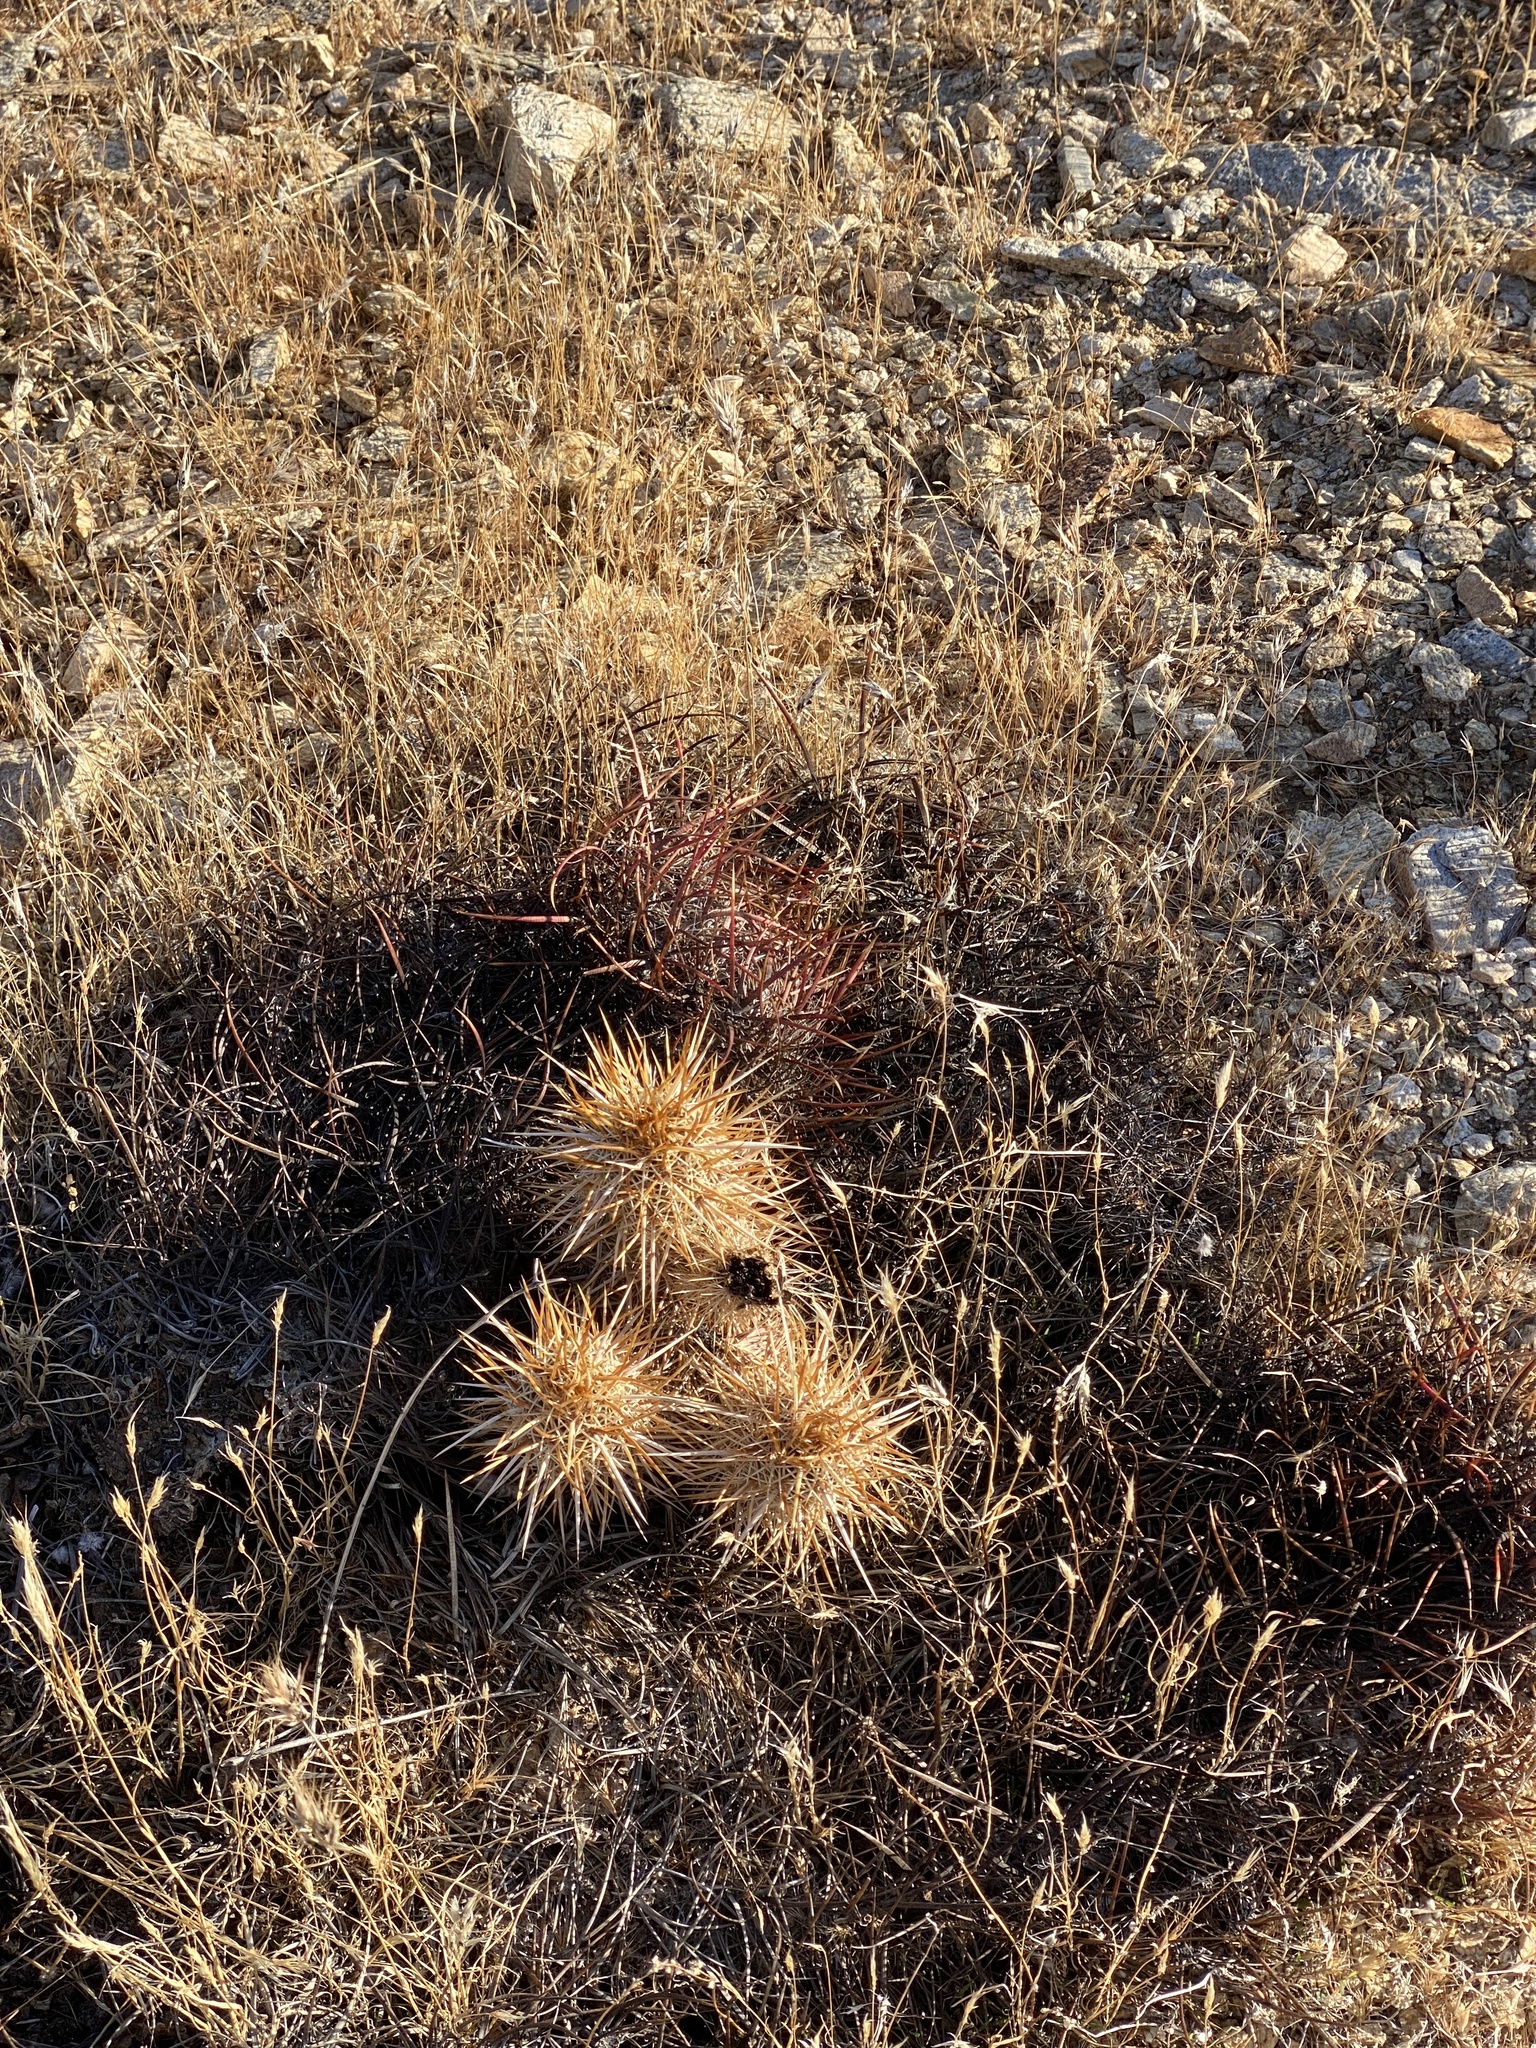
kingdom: Plantae
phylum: Tracheophyta
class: Magnoliopsida
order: Caryophyllales
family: Cactaceae
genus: Echinocereus
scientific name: Echinocereus engelmannii
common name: Engelmann's hedgehog cactus
